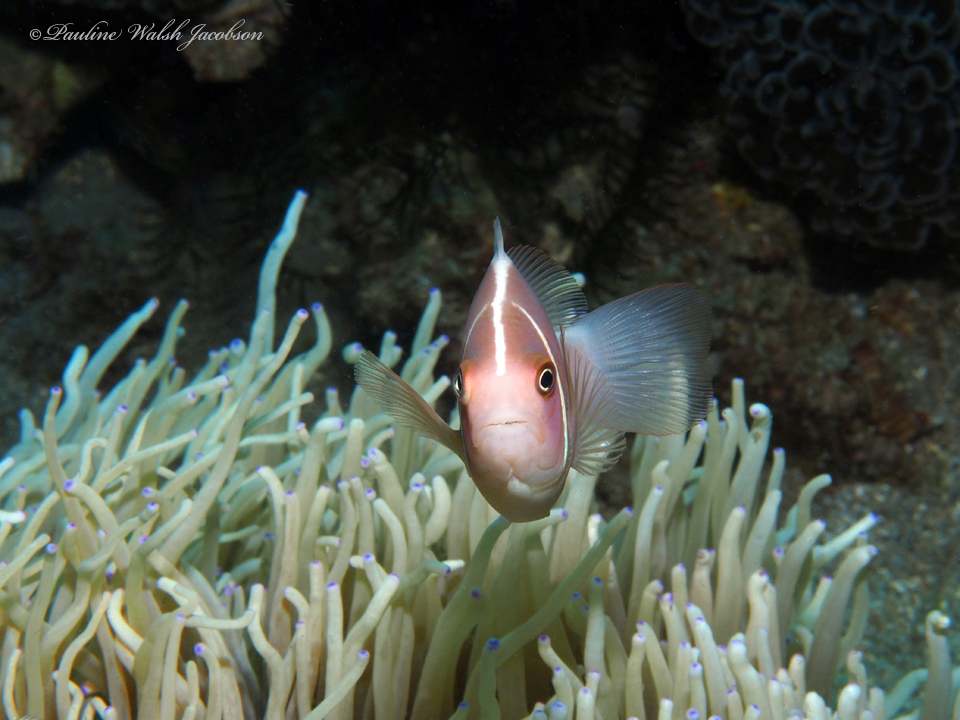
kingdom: Animalia
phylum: Chordata
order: Perciformes
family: Pomacentridae
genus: Amphiprion
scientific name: Amphiprion perideraion
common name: Pink anemonefish
